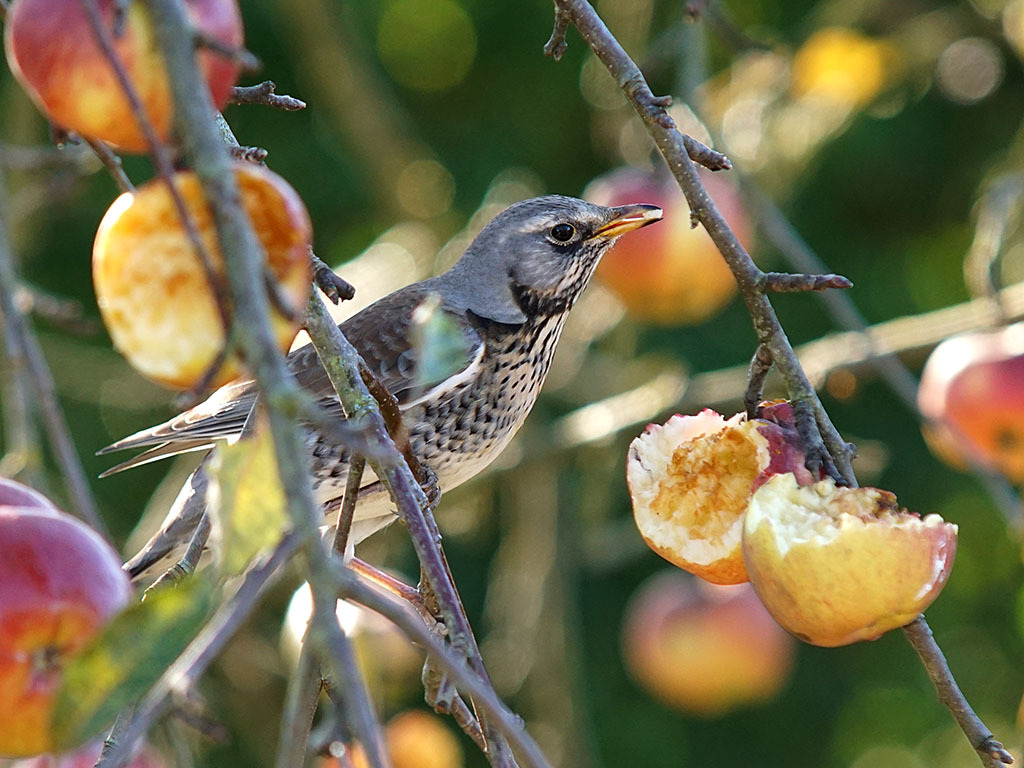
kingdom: Animalia
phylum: Chordata
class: Aves
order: Passeriformes
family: Turdidae
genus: Turdus
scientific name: Turdus pilaris
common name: Fieldfare
